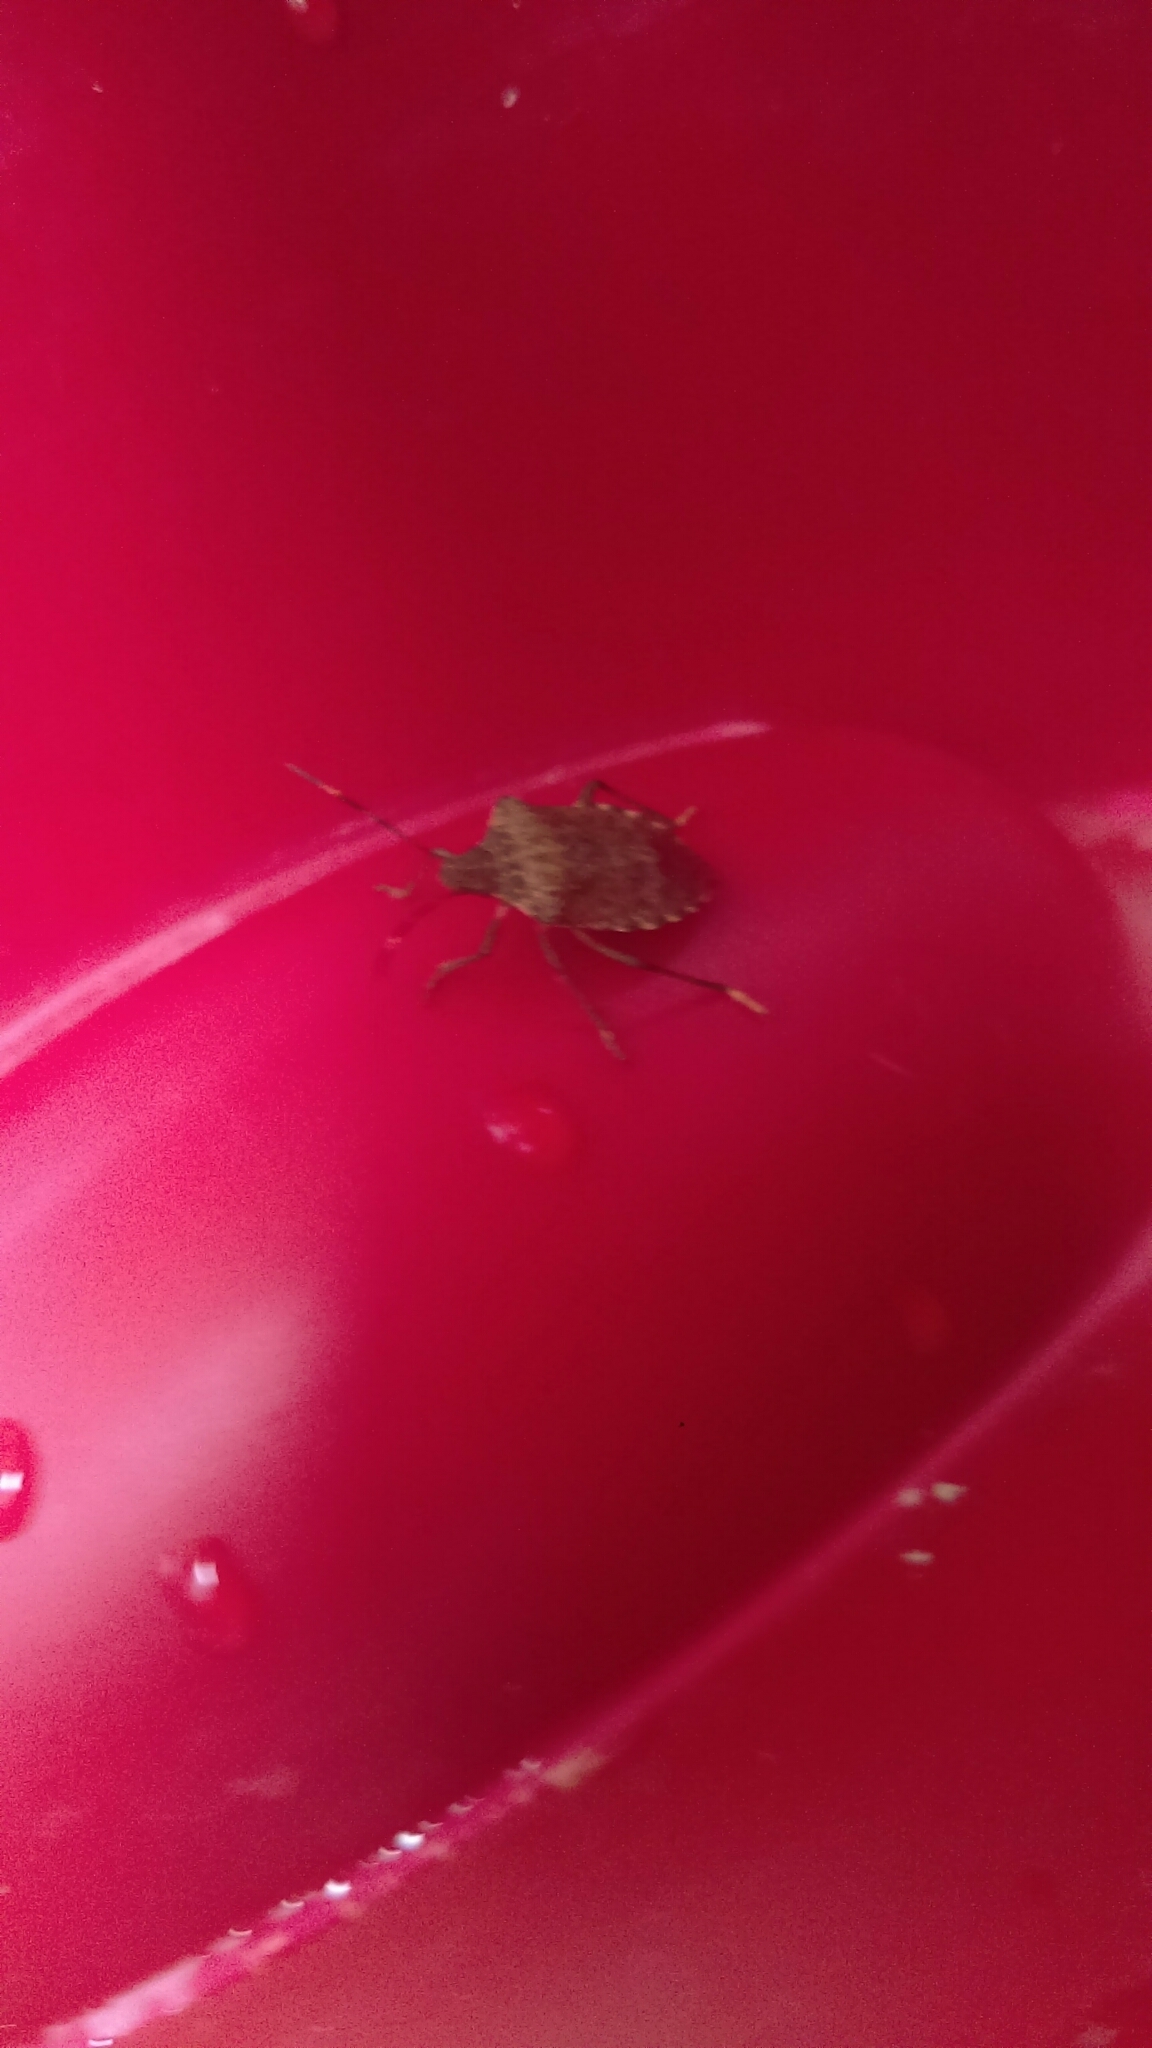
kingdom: Animalia
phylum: Arthropoda
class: Insecta
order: Hemiptera
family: Pentatomidae
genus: Halyomorpha
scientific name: Halyomorpha halys
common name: Brown marmorated stink bug
